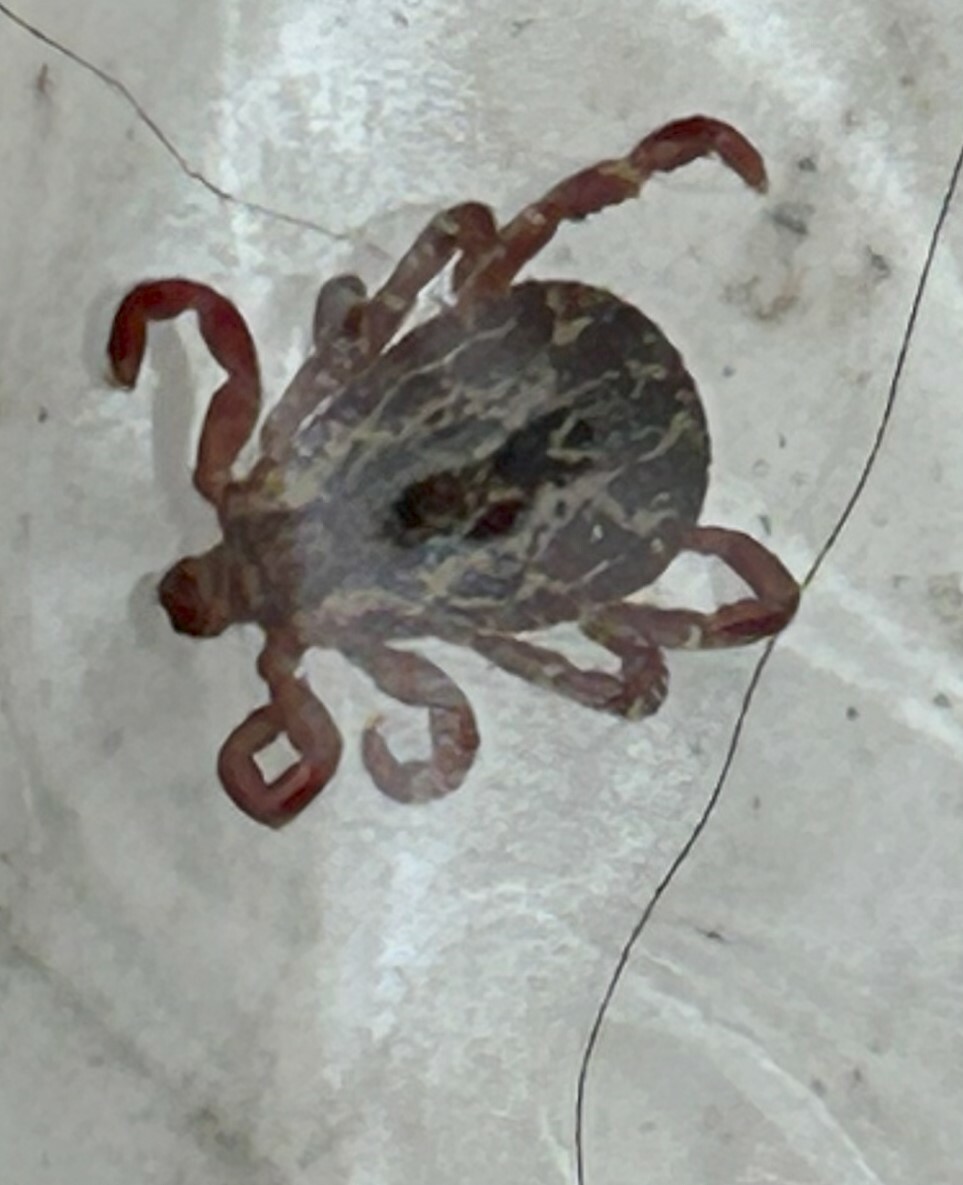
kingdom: Animalia
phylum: Arthropoda
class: Arachnida
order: Ixodida
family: Ixodidae
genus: Dermacentor
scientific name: Dermacentor variabilis
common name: American dog tick
